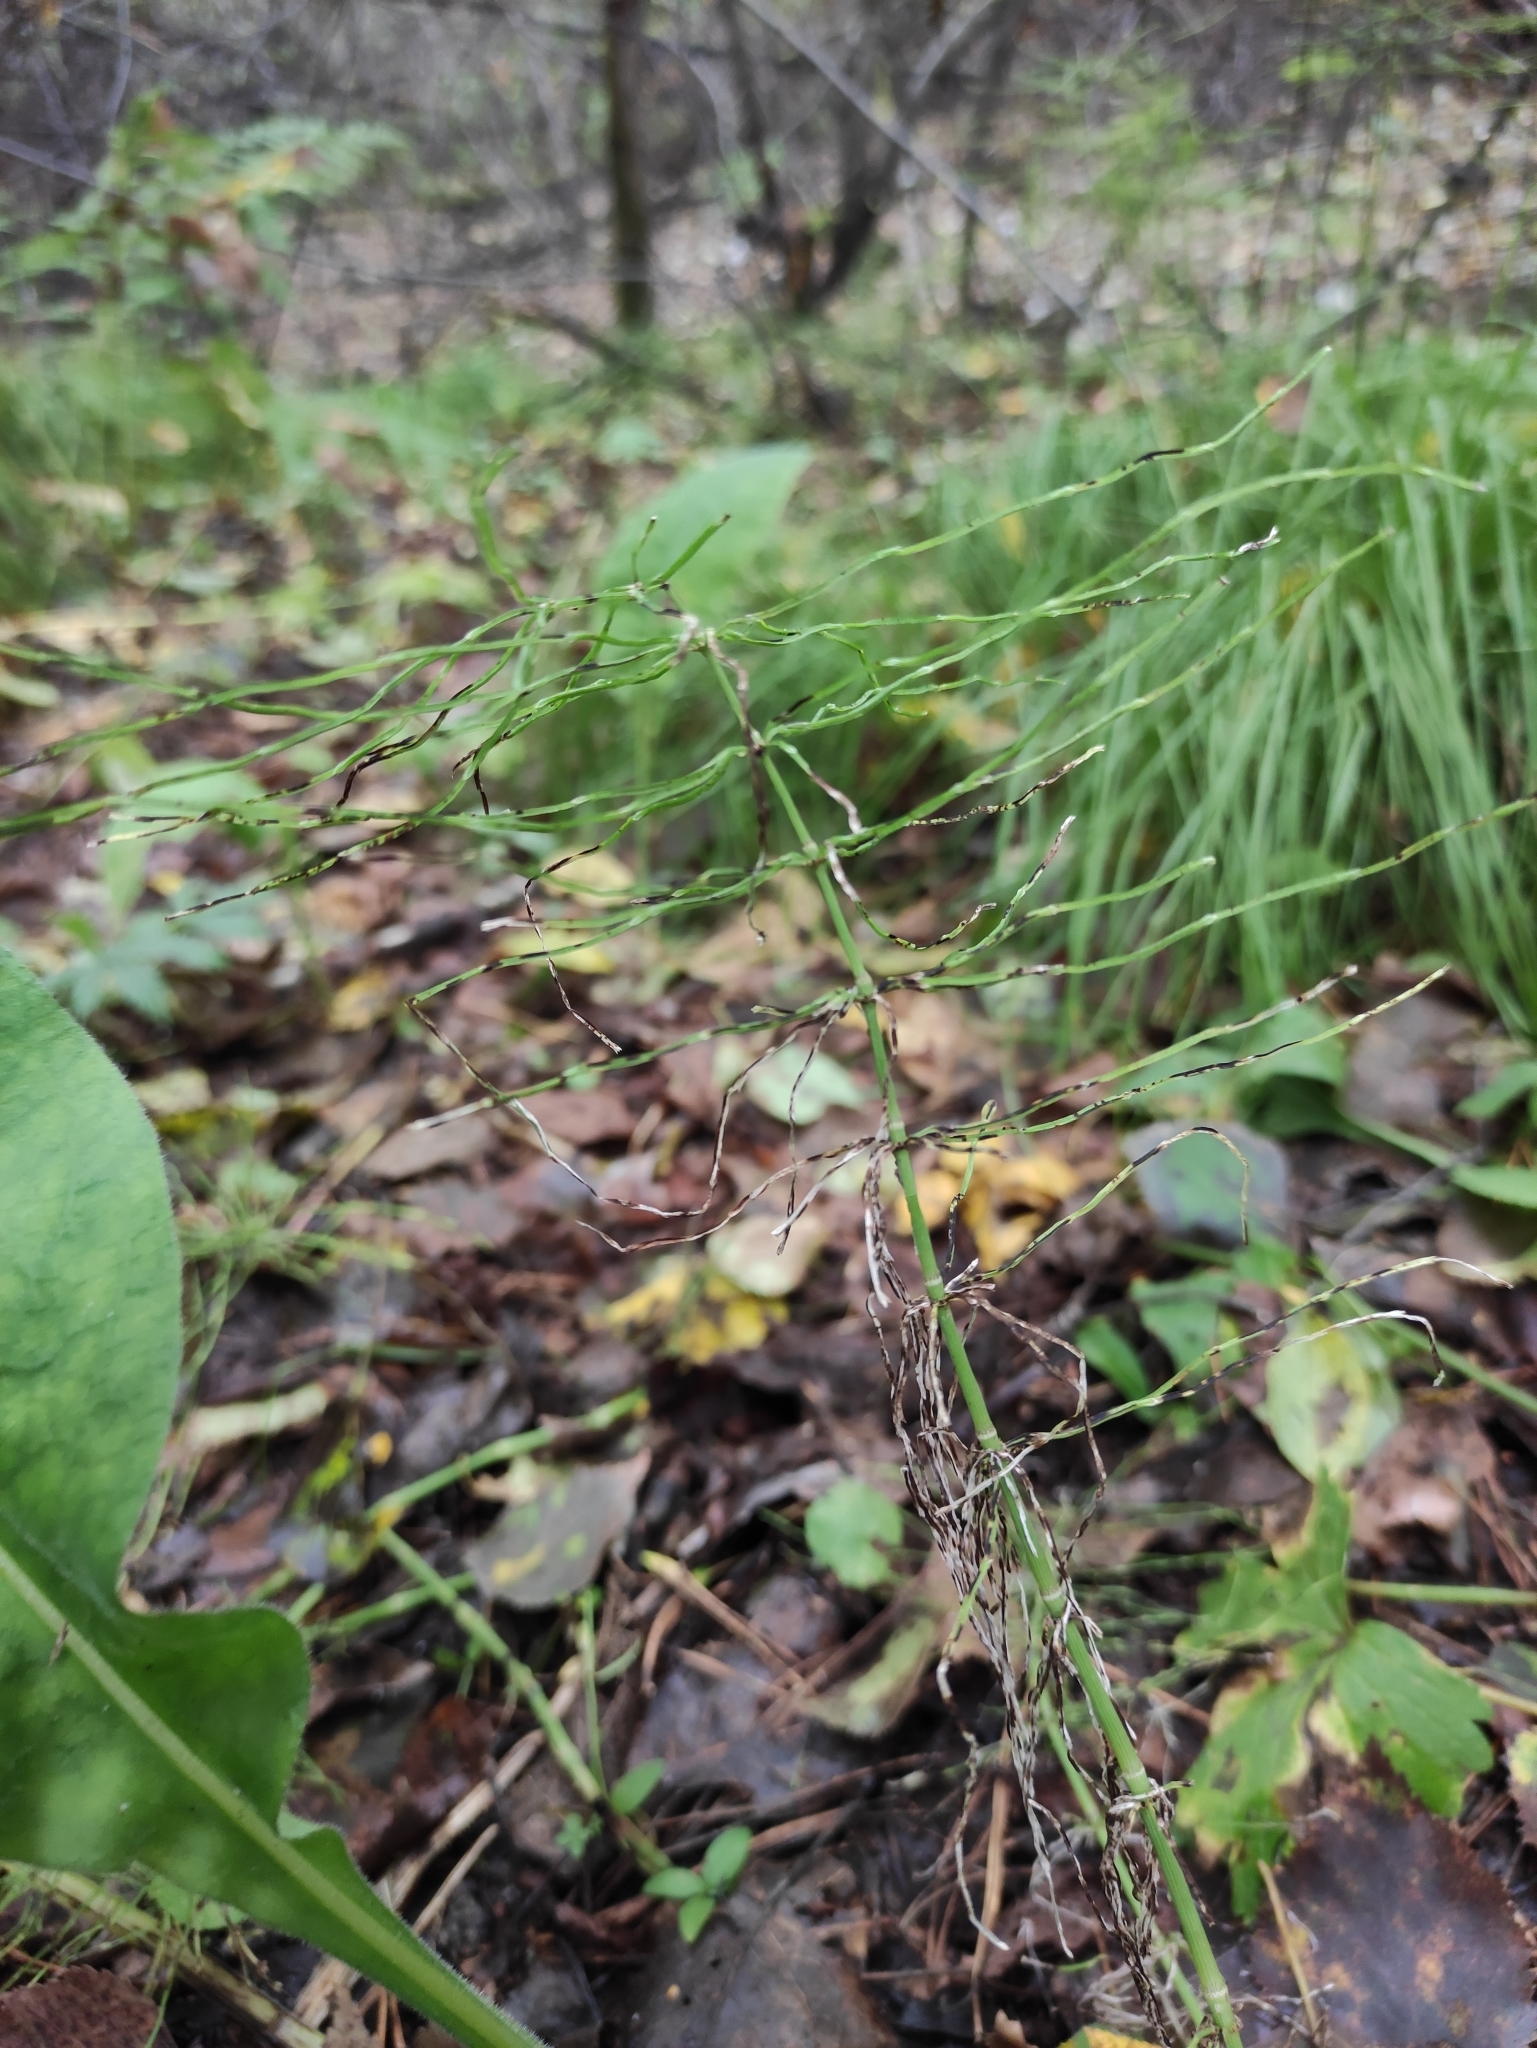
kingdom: Plantae
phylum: Tracheophyta
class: Polypodiopsida
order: Equisetales
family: Equisetaceae
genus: Equisetum
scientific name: Equisetum pratense
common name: Meadow horsetail
